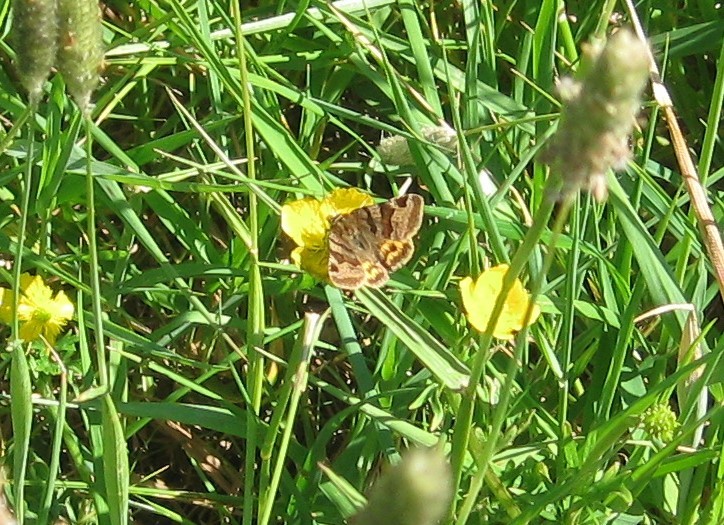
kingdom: Animalia
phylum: Arthropoda
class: Insecta
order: Lepidoptera
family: Erebidae
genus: Euclidia
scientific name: Euclidia glyphica
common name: Burnet companion
